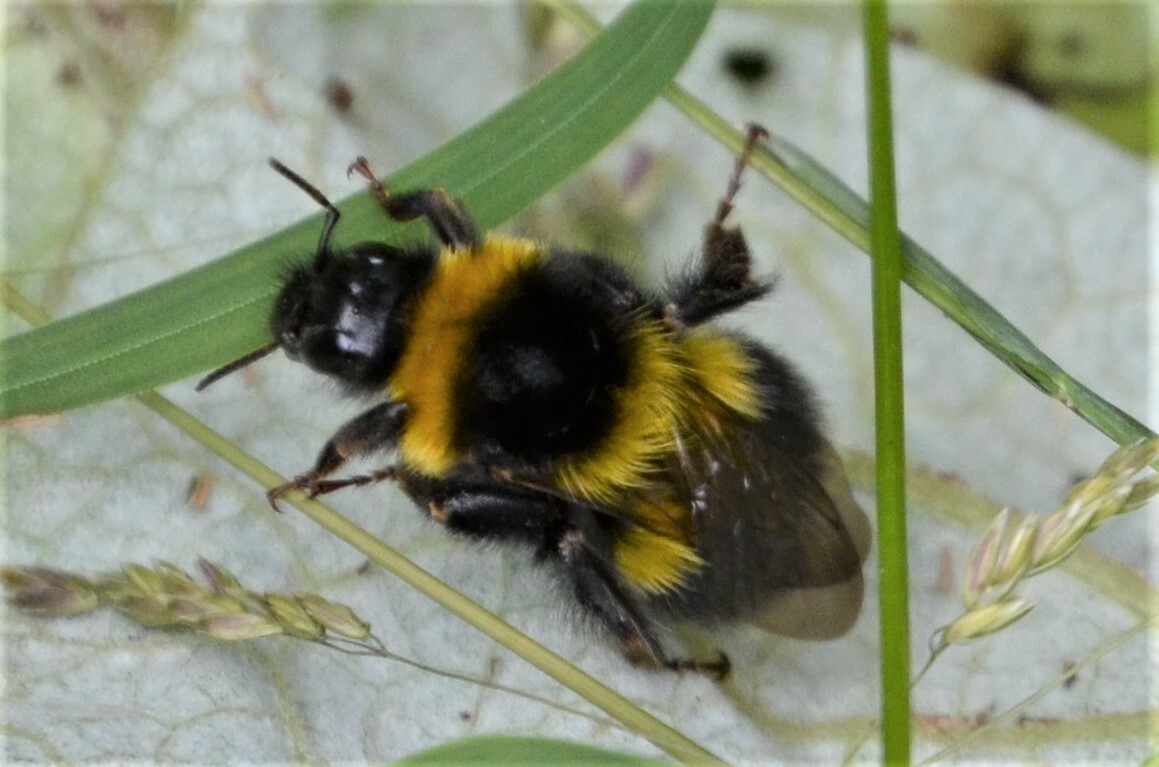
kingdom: Animalia
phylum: Arthropoda
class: Insecta
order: Hymenoptera
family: Apidae
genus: Bombus
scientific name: Bombus hortorum
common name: Garden bumblebee
